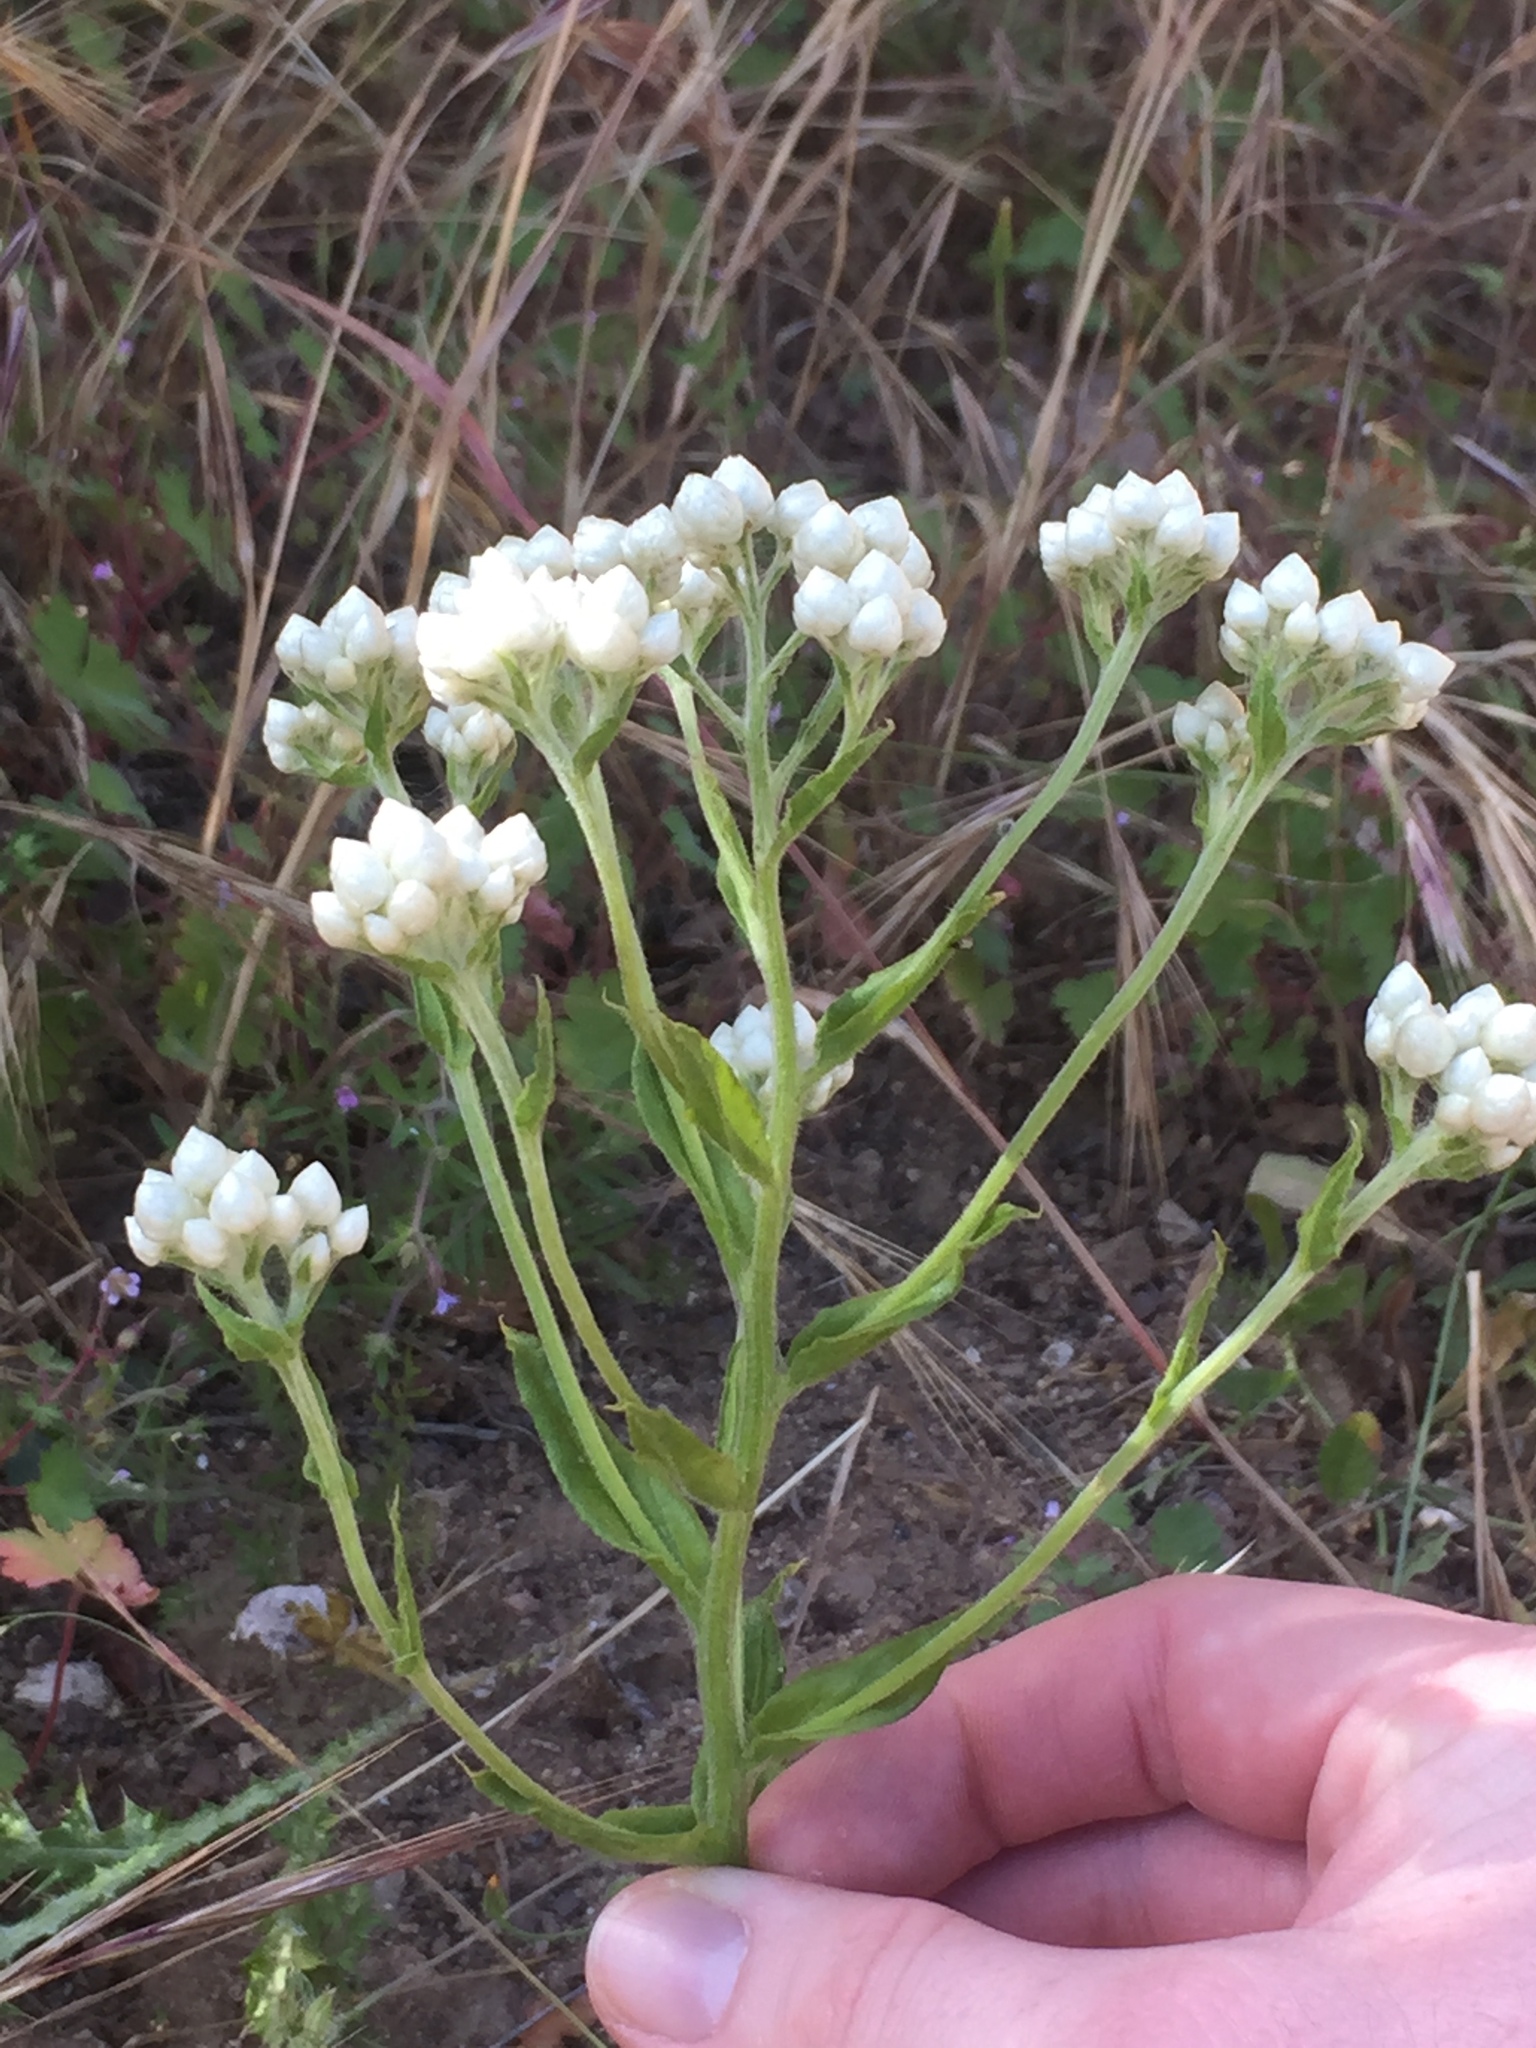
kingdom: Plantae
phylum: Tracheophyta
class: Magnoliopsida
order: Asterales
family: Asteraceae
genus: Pseudognaphalium
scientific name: Pseudognaphalium californicum
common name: California rabbit-tobacco
